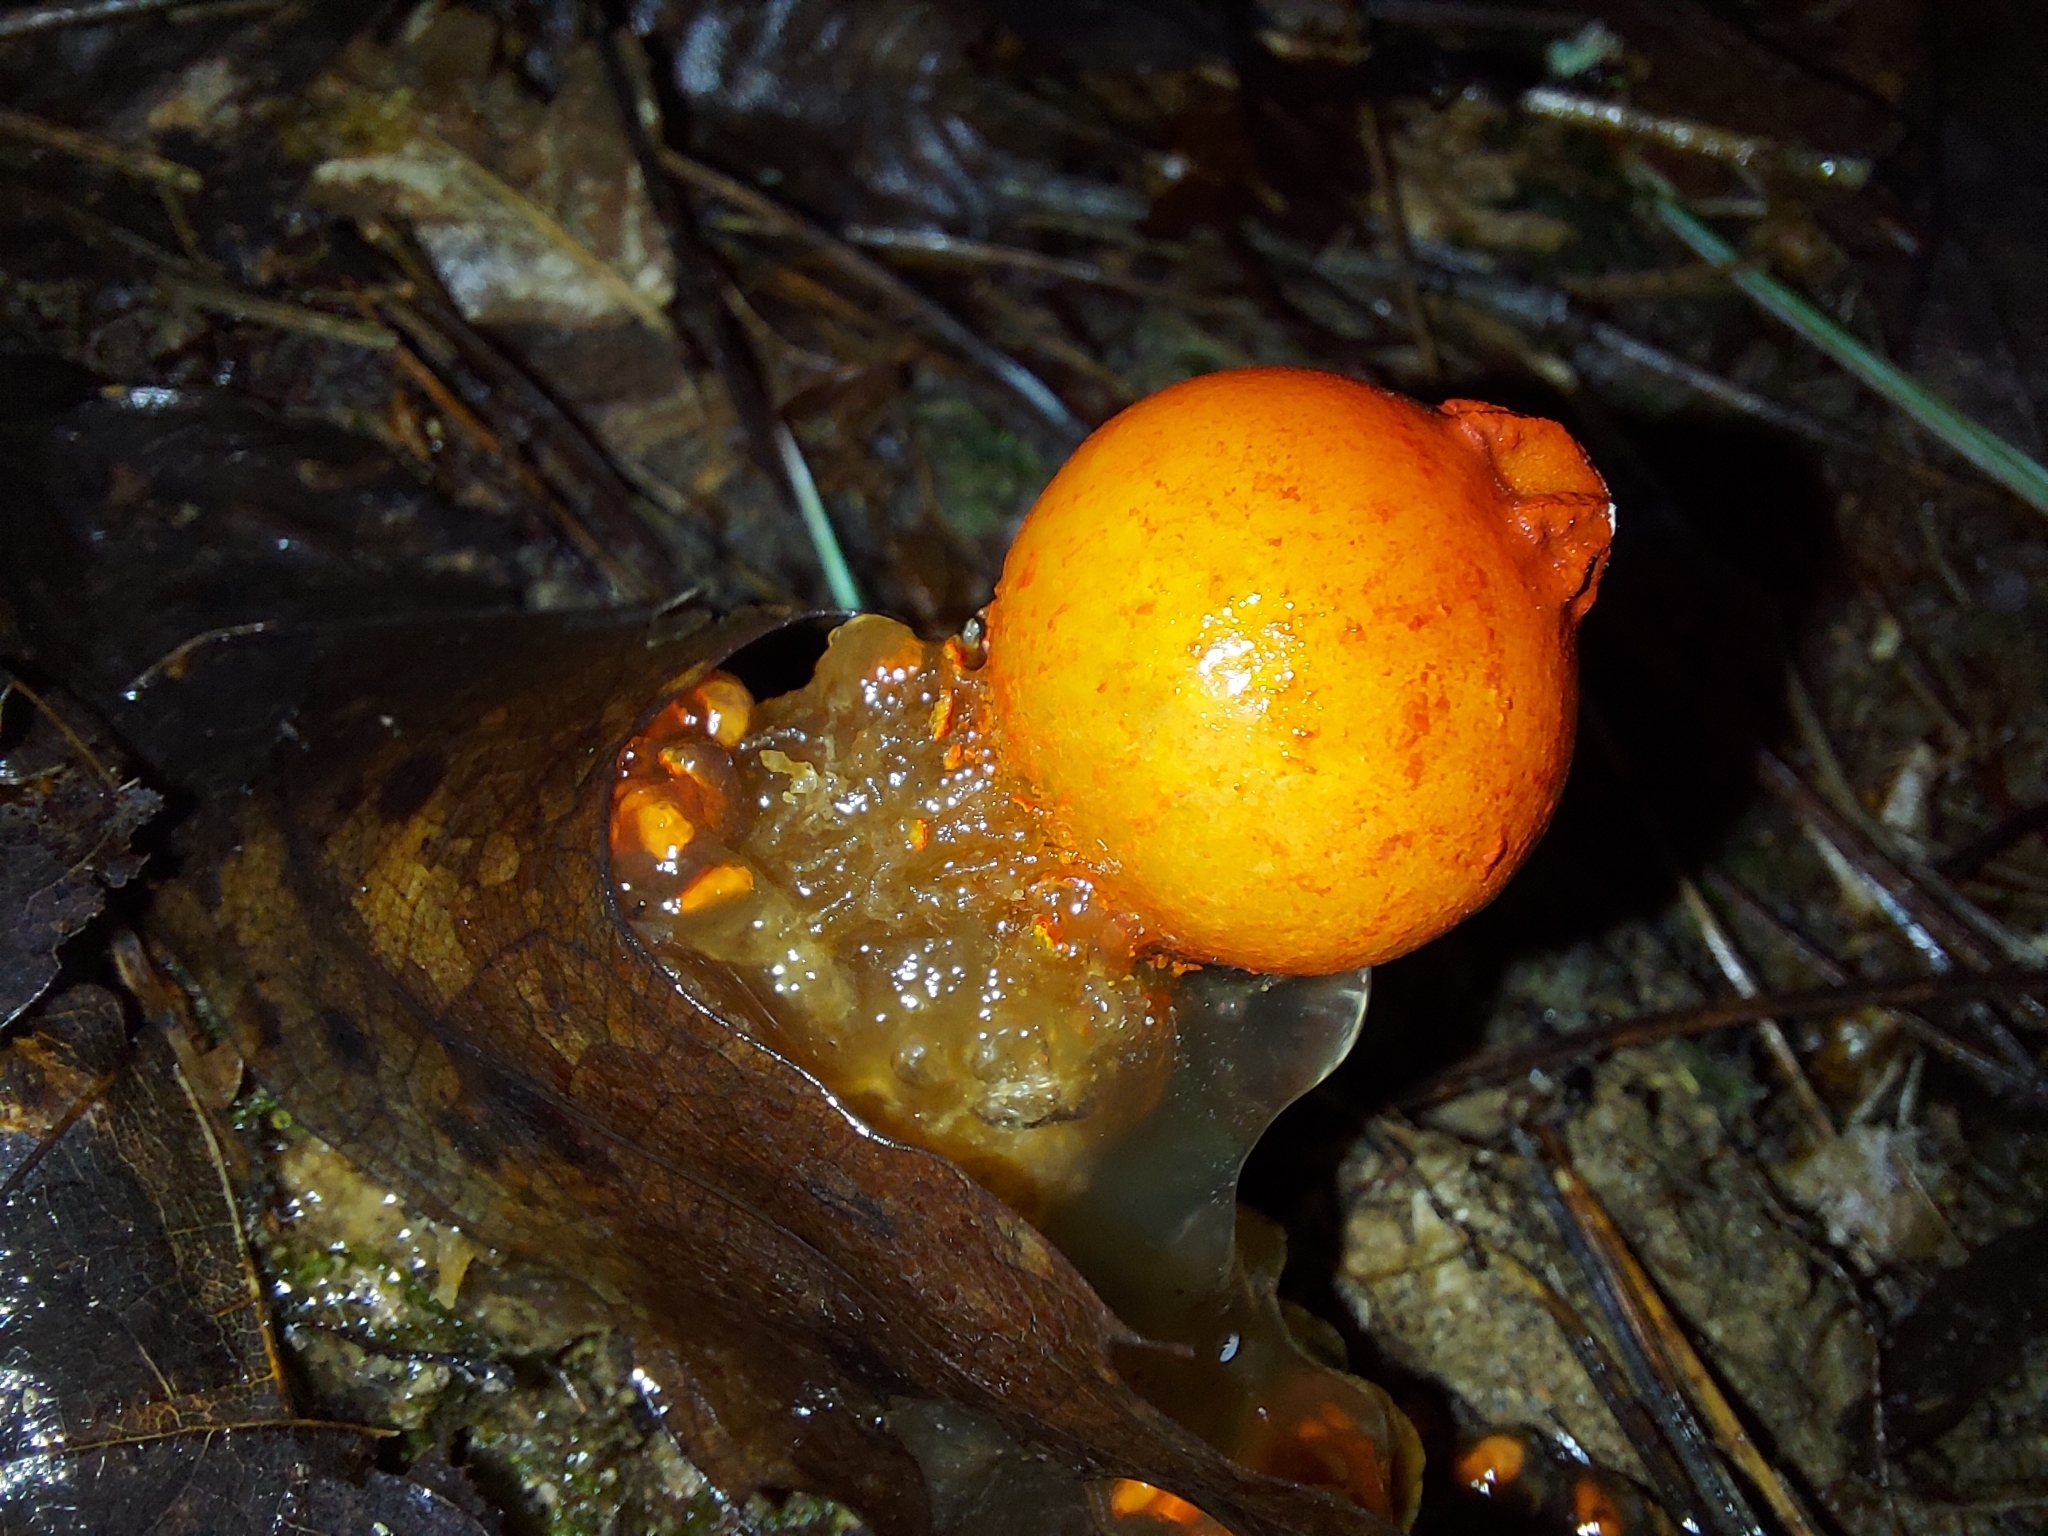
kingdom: Fungi
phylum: Basidiomycota
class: Agaricomycetes
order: Boletales
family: Calostomataceae
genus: Calostoma
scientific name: Calostoma cinnabarinum
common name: Stalked puffball-in-aspic
